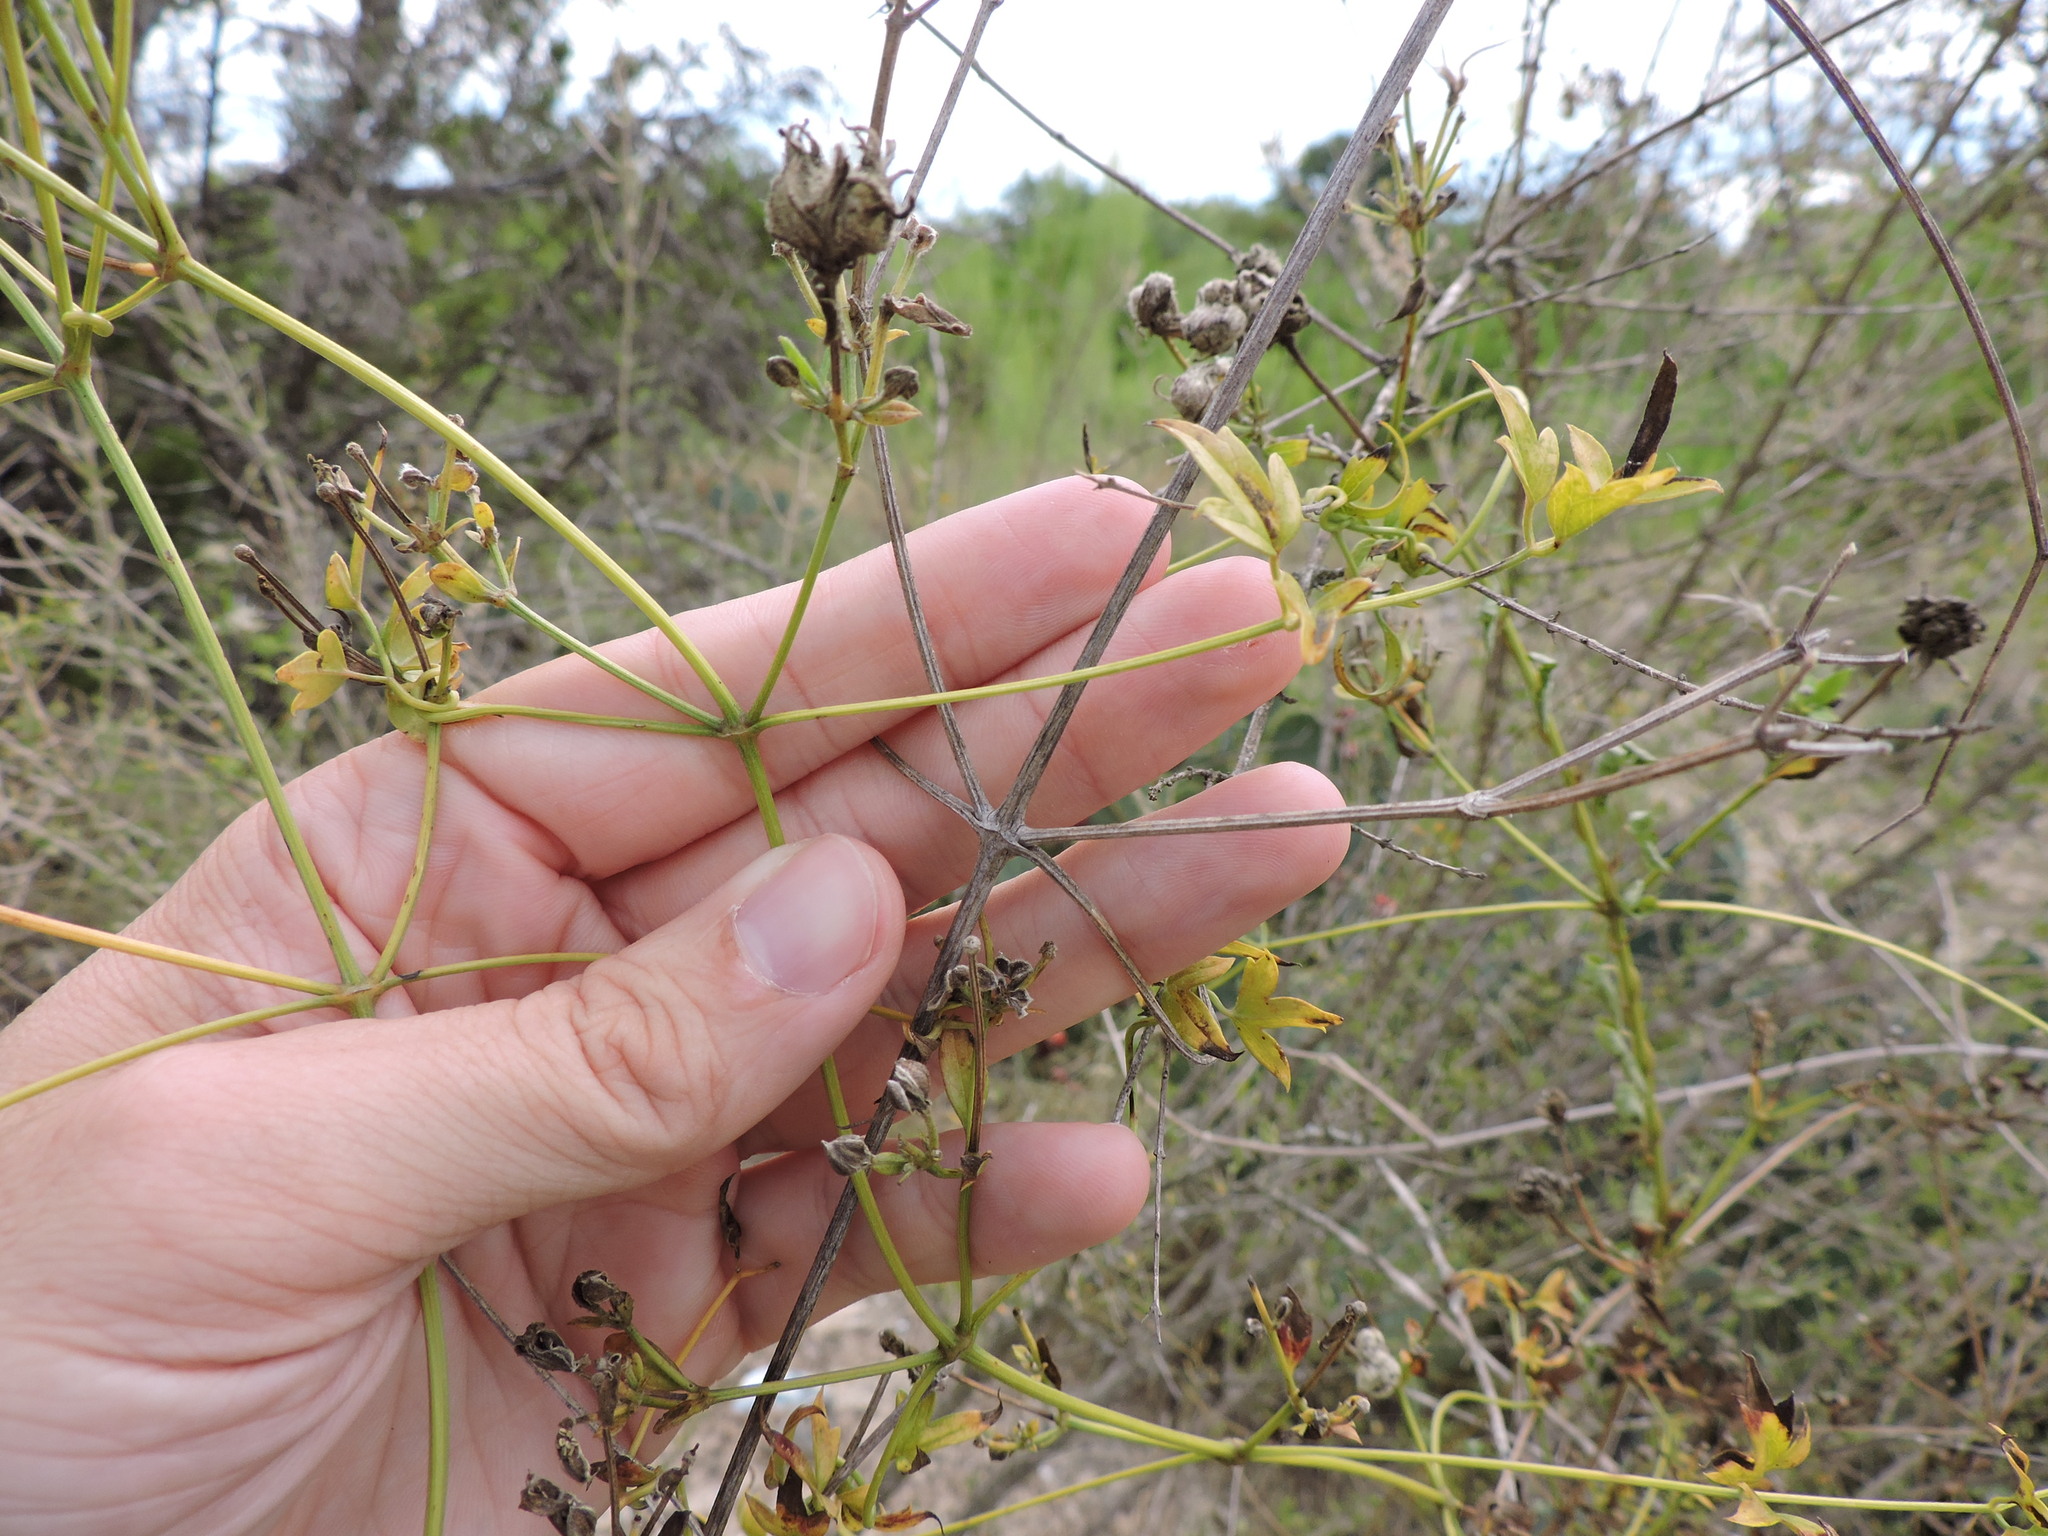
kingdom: Plantae
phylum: Tracheophyta
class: Magnoliopsida
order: Ranunculales
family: Ranunculaceae
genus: Clematis
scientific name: Clematis drummondii
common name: Texas virgin's bower
